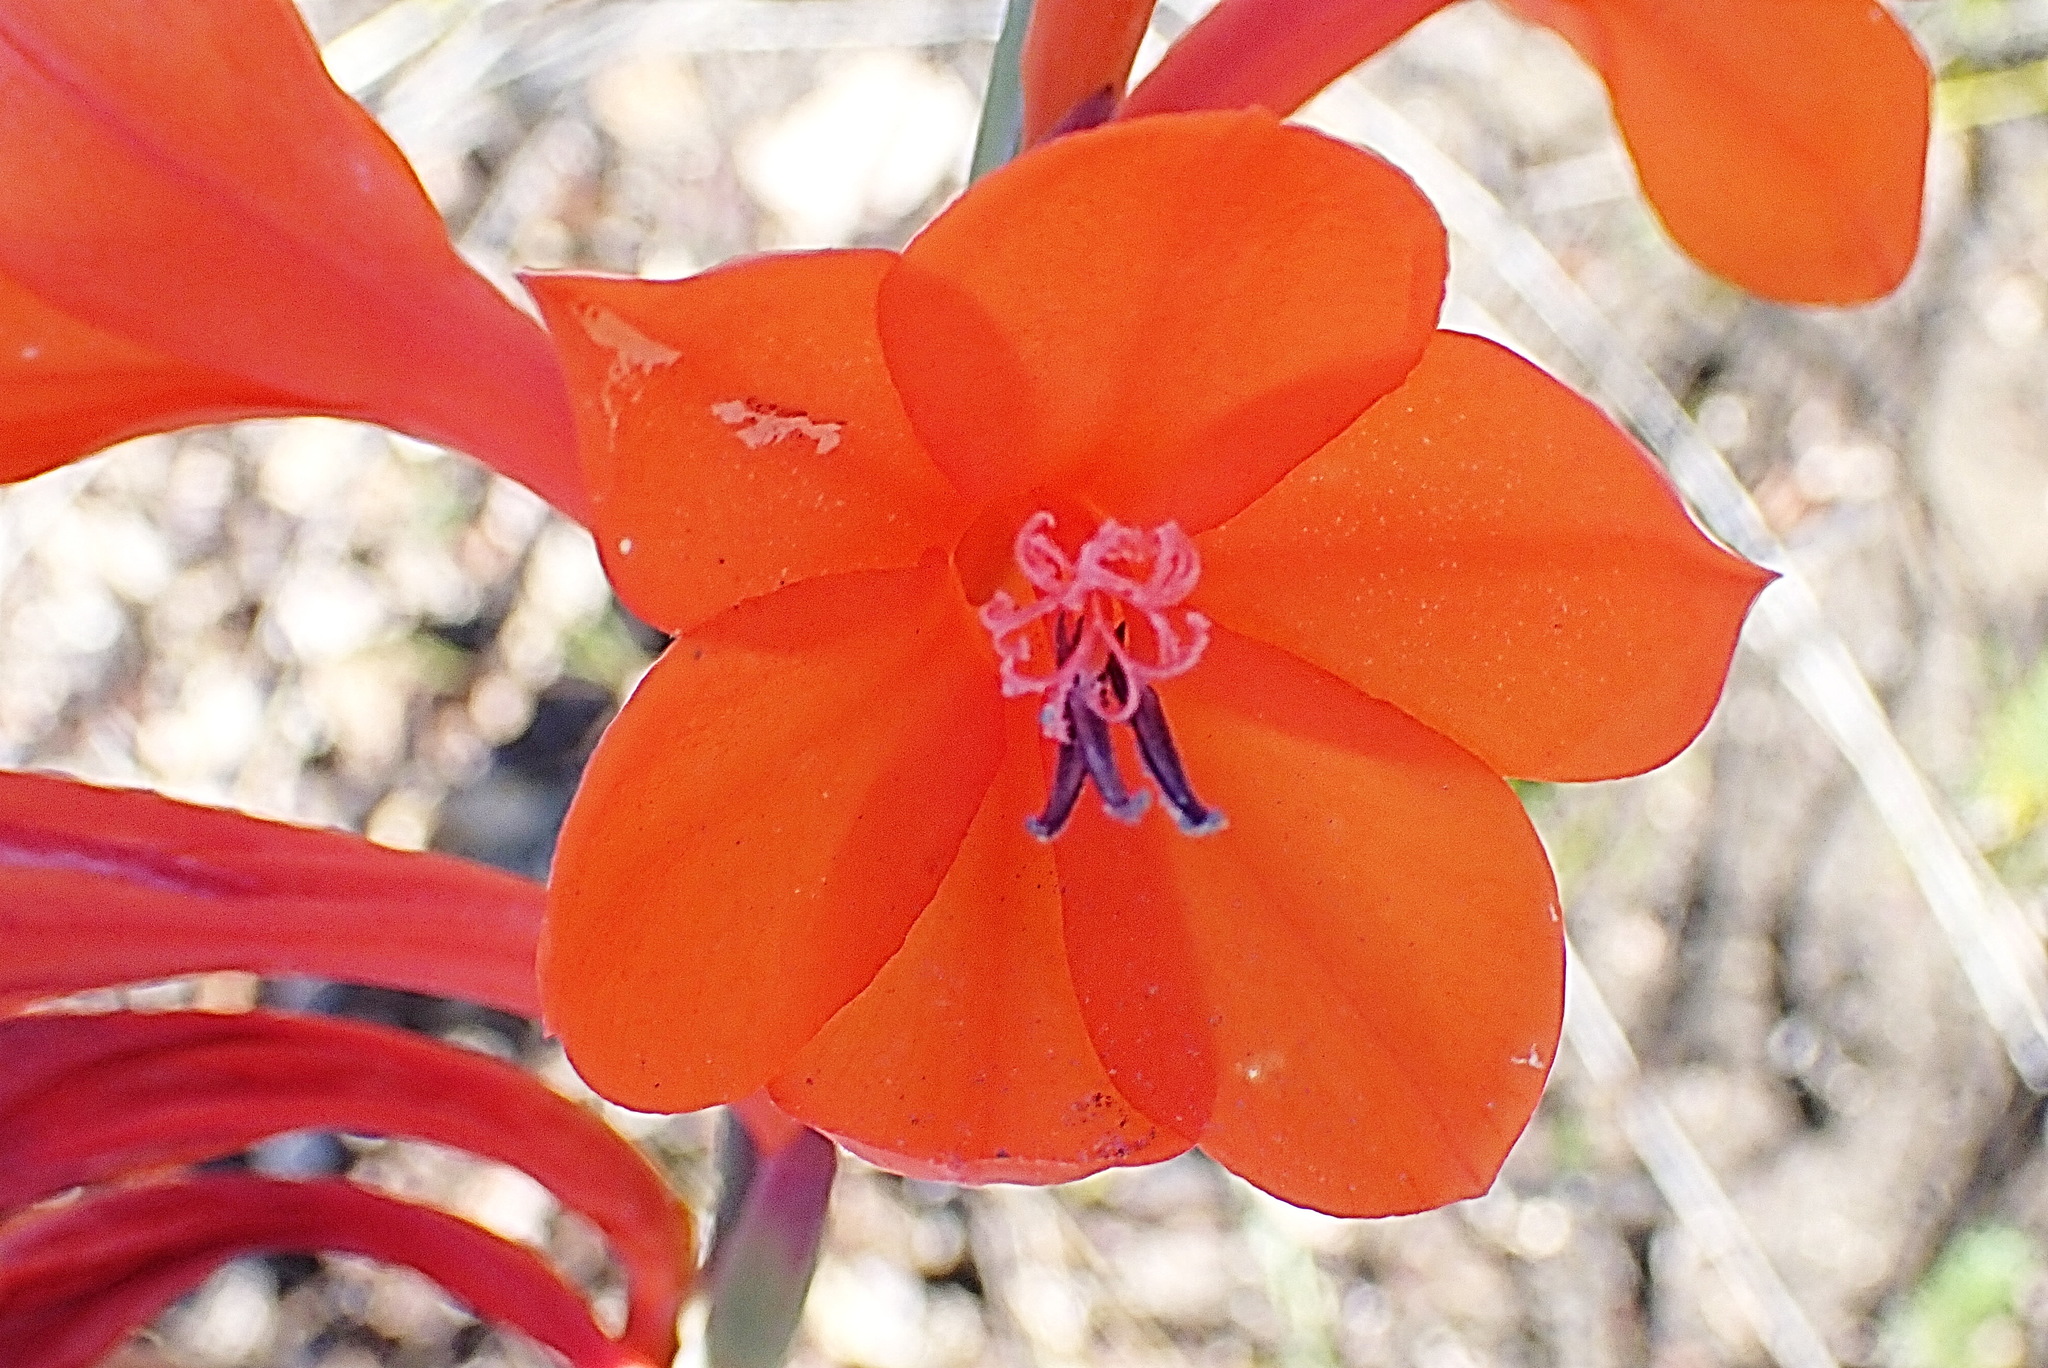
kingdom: Plantae
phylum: Tracheophyta
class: Liliopsida
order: Asparagales
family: Iridaceae
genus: Watsonia
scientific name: Watsonia pillansii
